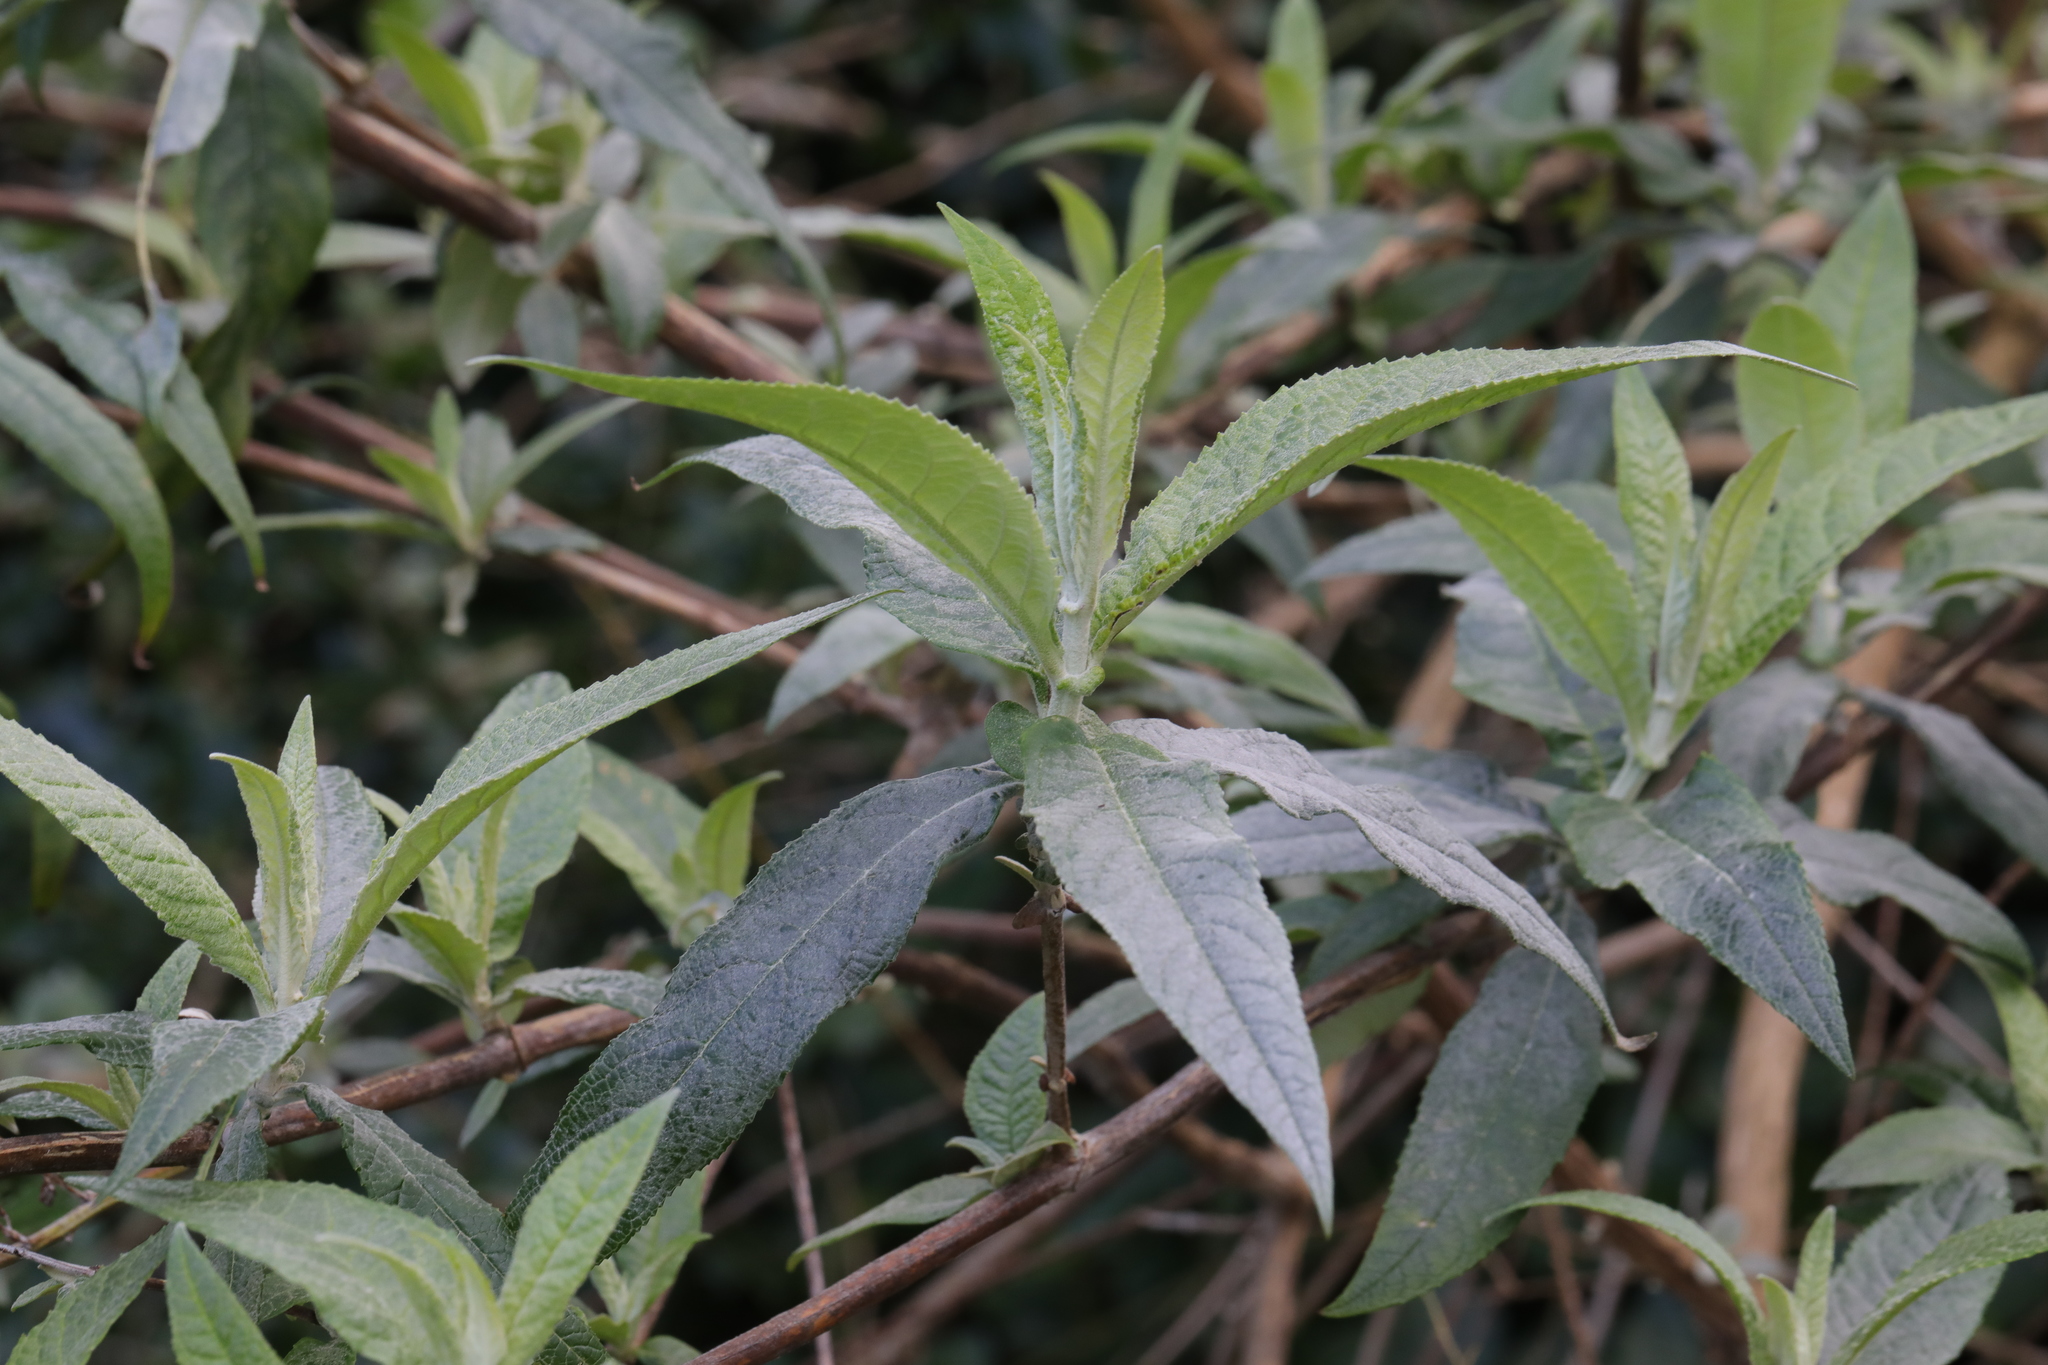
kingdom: Plantae
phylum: Tracheophyta
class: Magnoliopsida
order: Lamiales
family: Scrophulariaceae
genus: Buddleja
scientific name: Buddleja davidii
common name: Butterfly-bush
